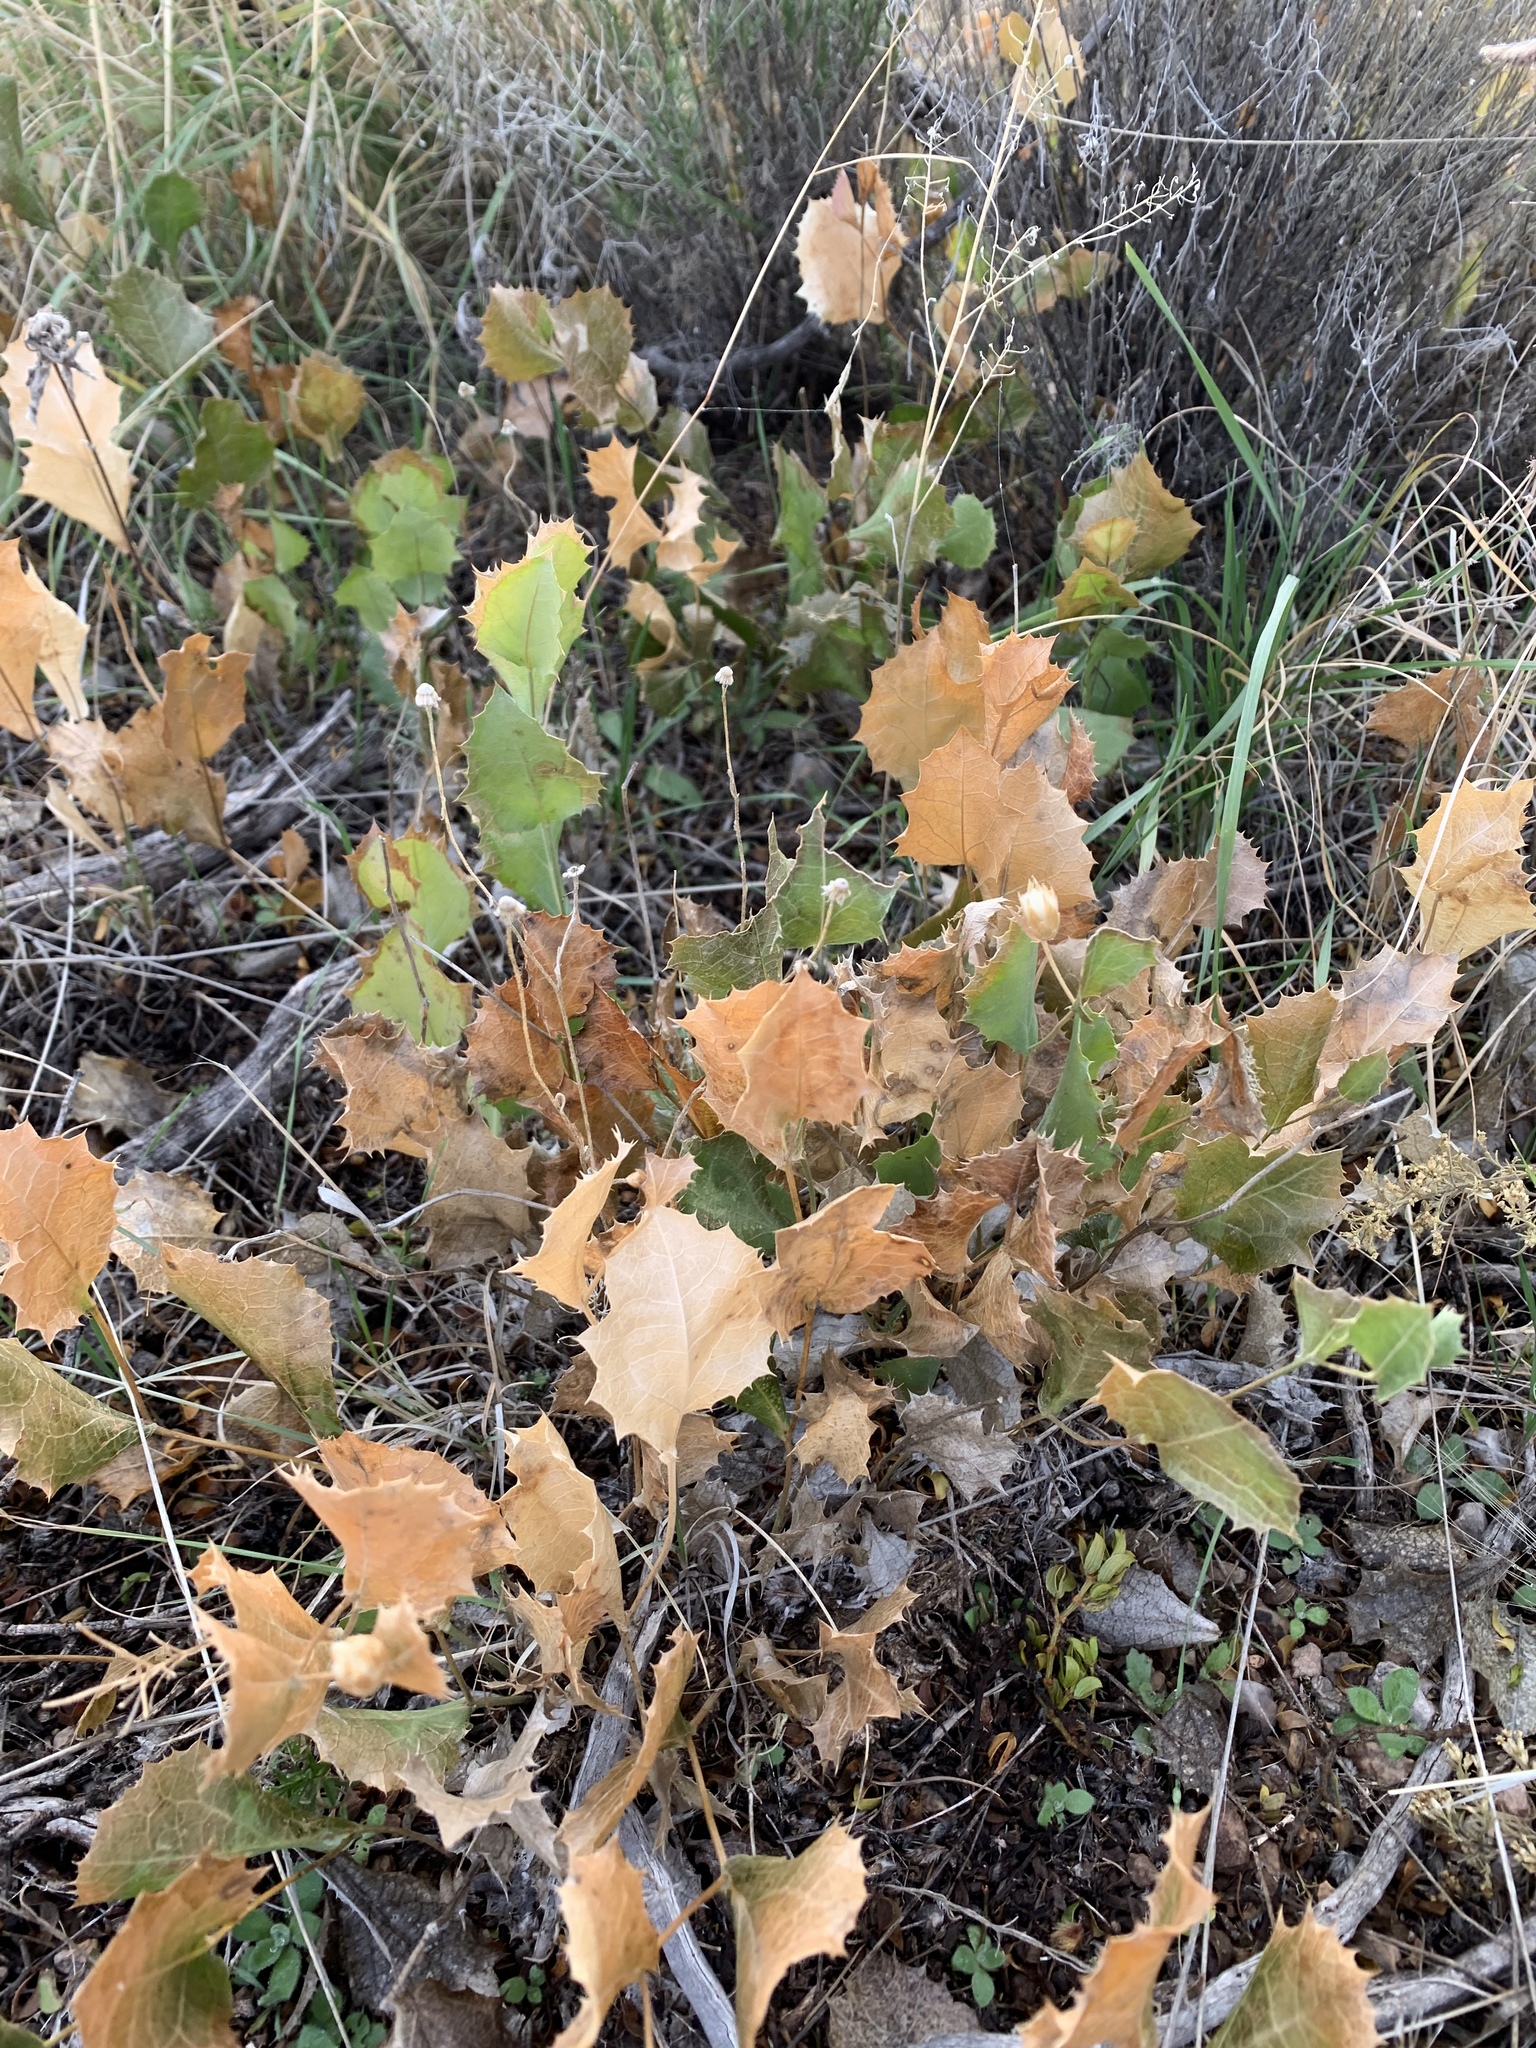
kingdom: Plantae
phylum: Tracheophyta
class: Magnoliopsida
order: Asterales
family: Asteraceae
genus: Acourtia
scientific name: Acourtia nana
